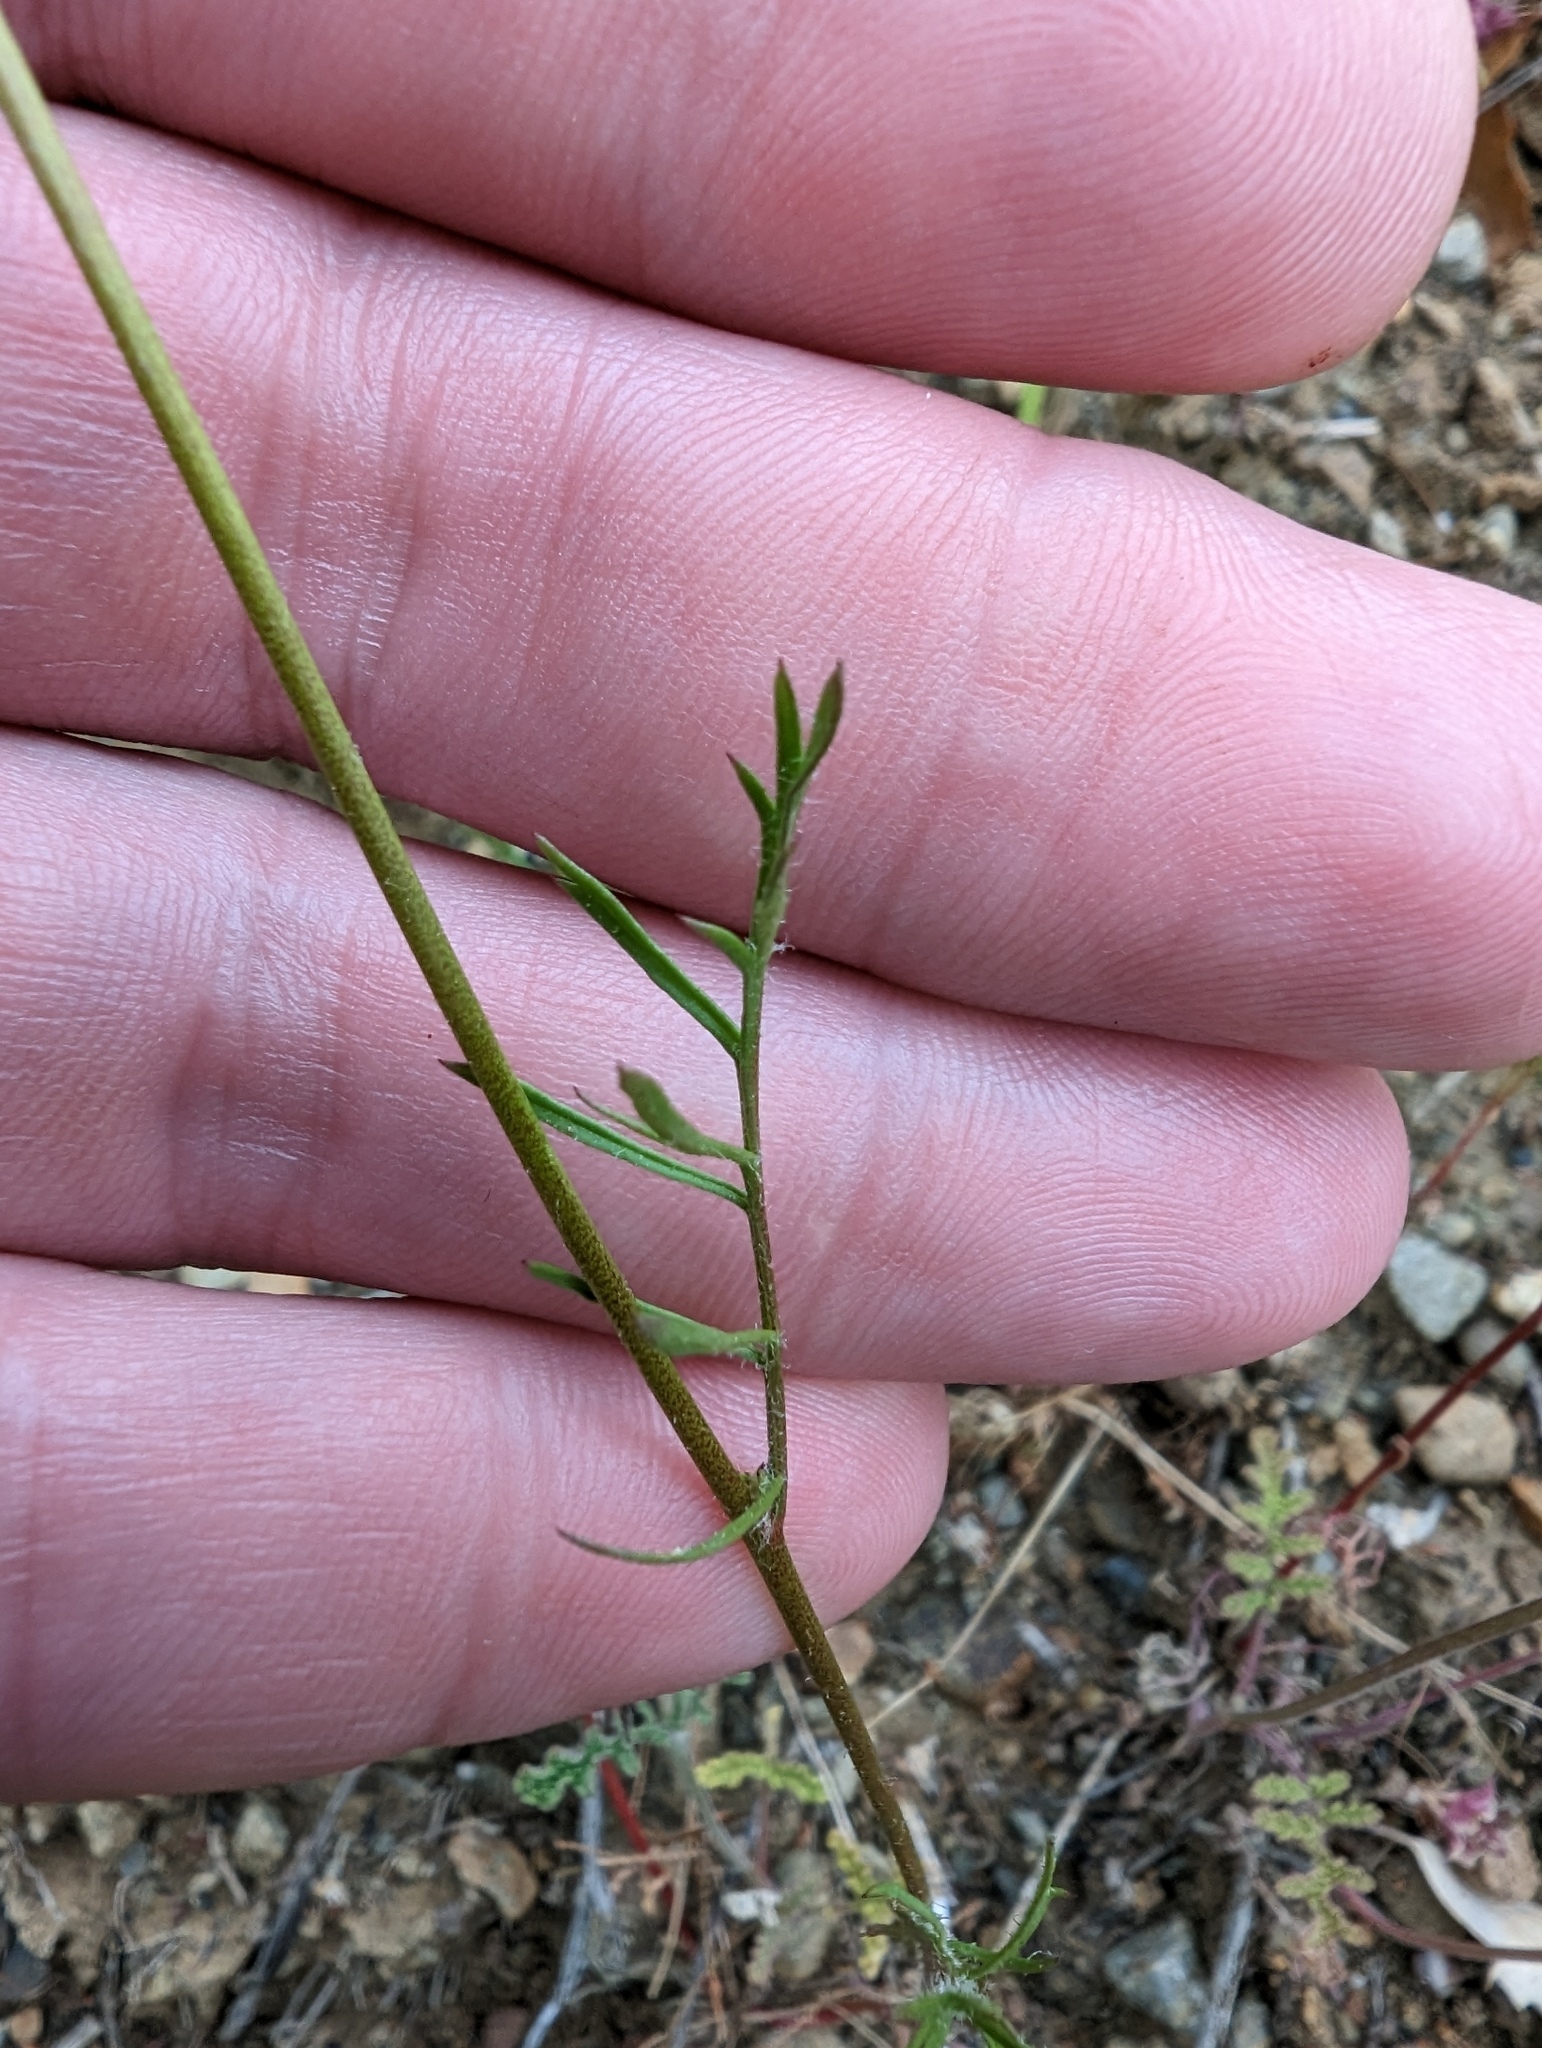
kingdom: Plantae
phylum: Tracheophyta
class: Magnoliopsida
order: Ericales
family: Polemoniaceae
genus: Gilia
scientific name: Gilia achilleifolia
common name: California gily-flower
